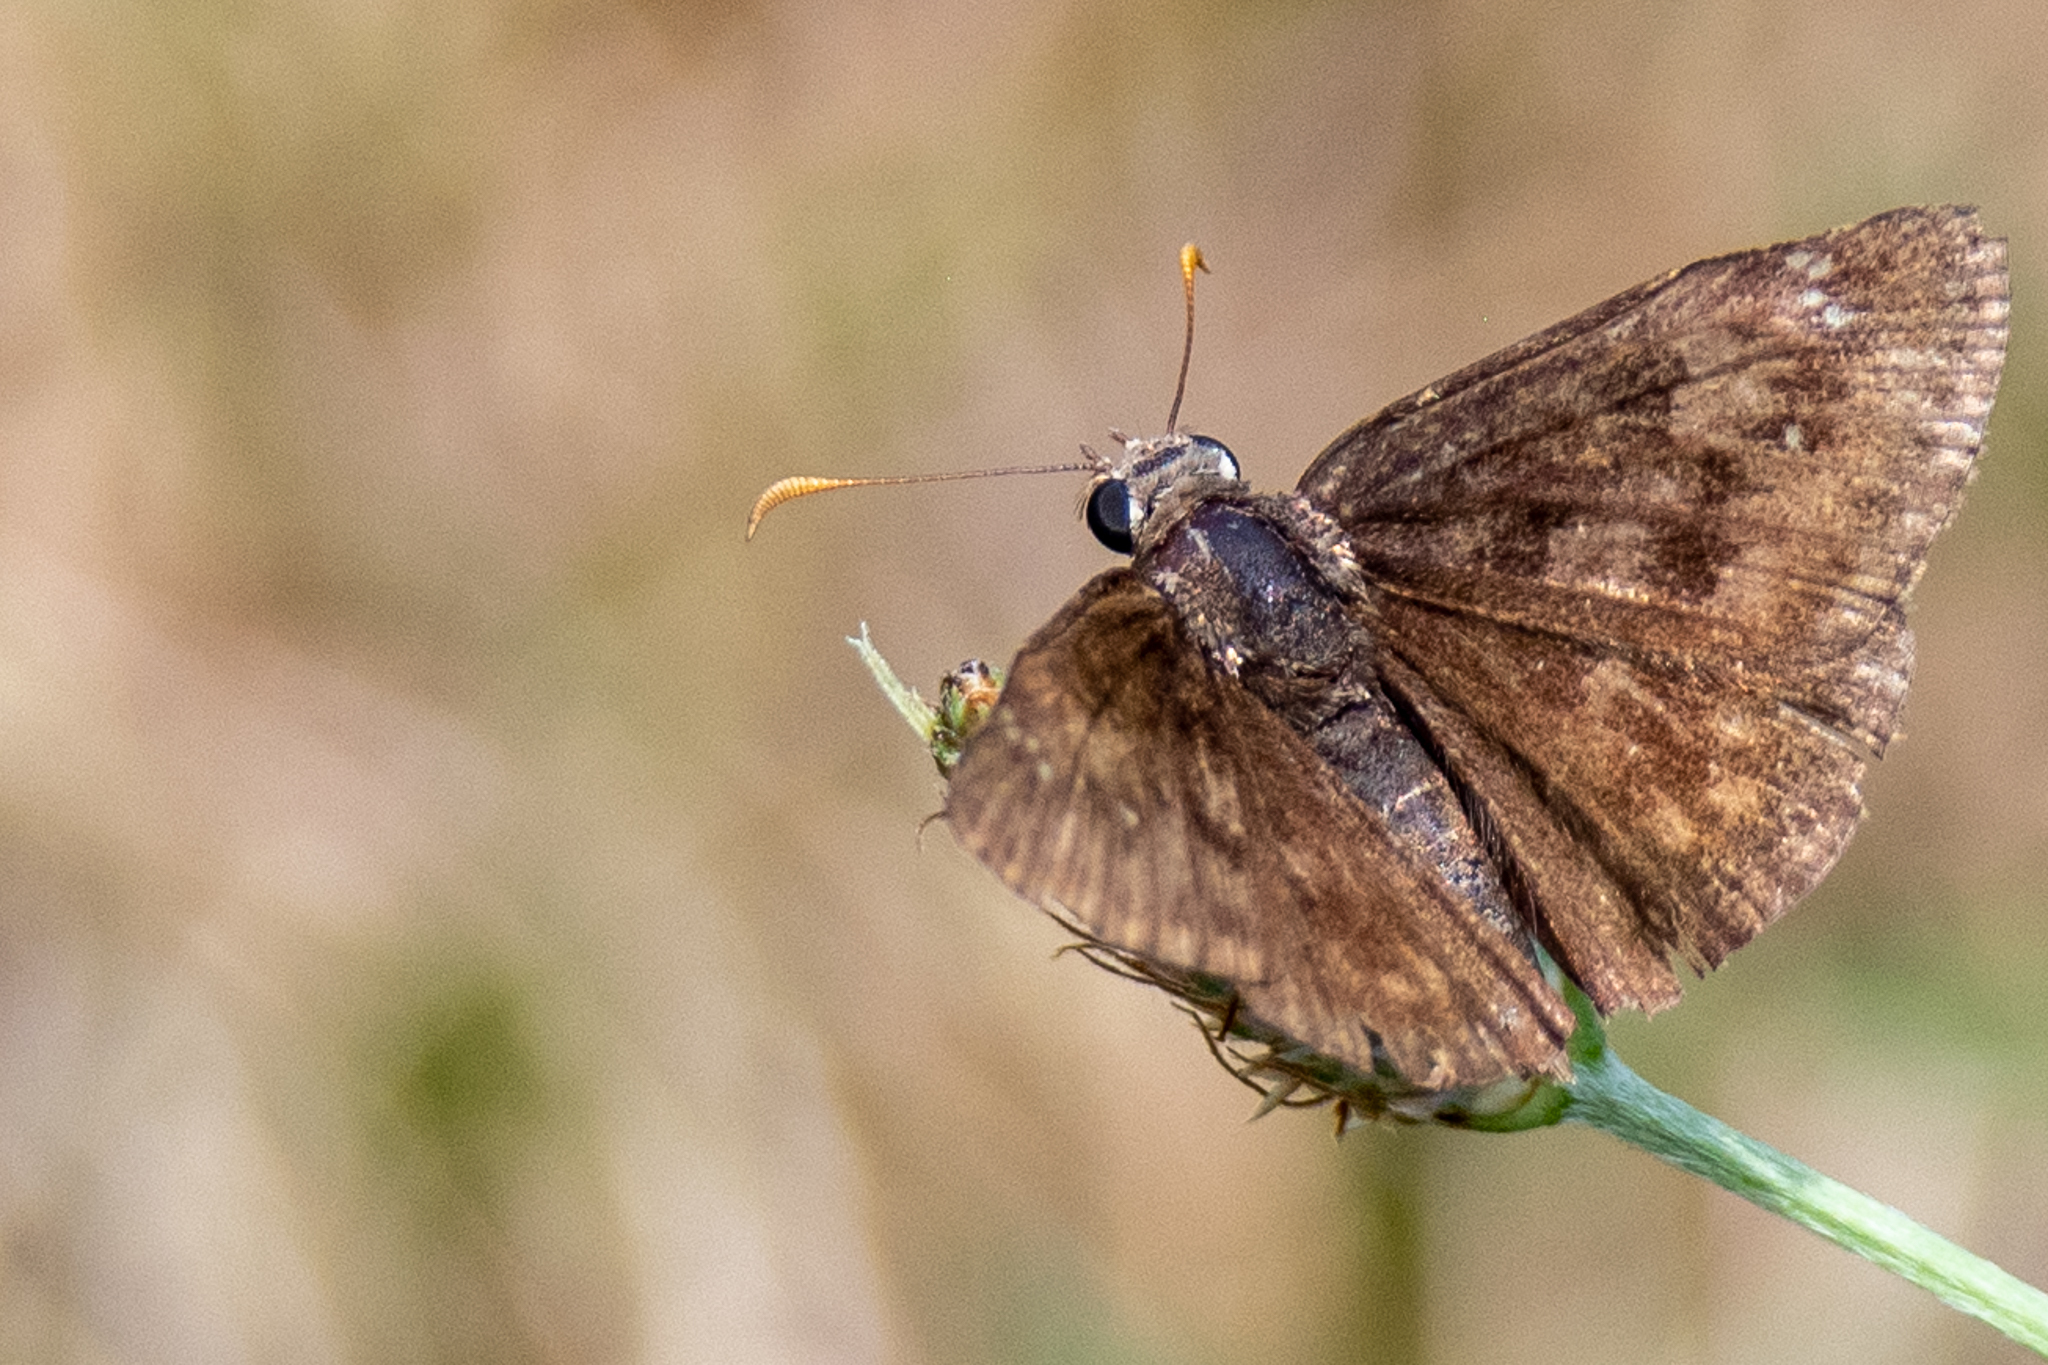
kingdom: Animalia
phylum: Arthropoda
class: Insecta
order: Lepidoptera
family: Hesperiidae
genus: Erynnis
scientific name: Erynnis baptisiae
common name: Wild indigo duskywing
